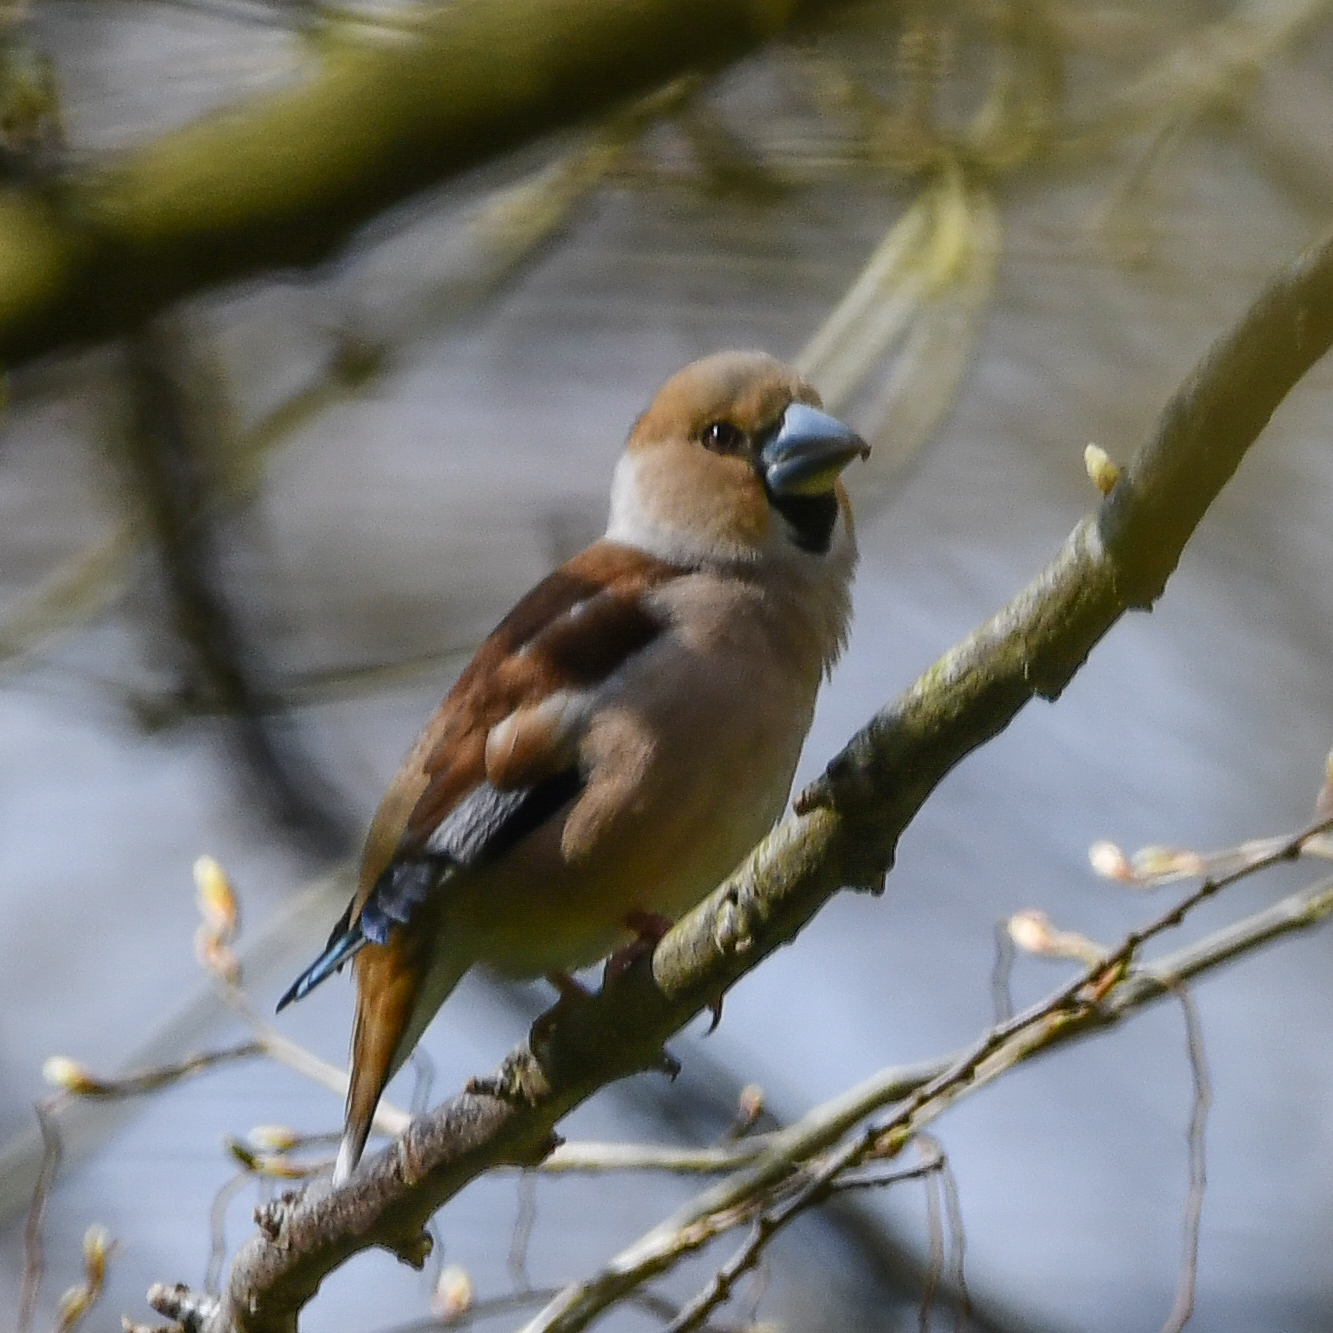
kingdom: Animalia
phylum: Chordata
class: Aves
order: Passeriformes
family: Fringillidae
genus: Coccothraustes
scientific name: Coccothraustes coccothraustes
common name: Hawfinch
